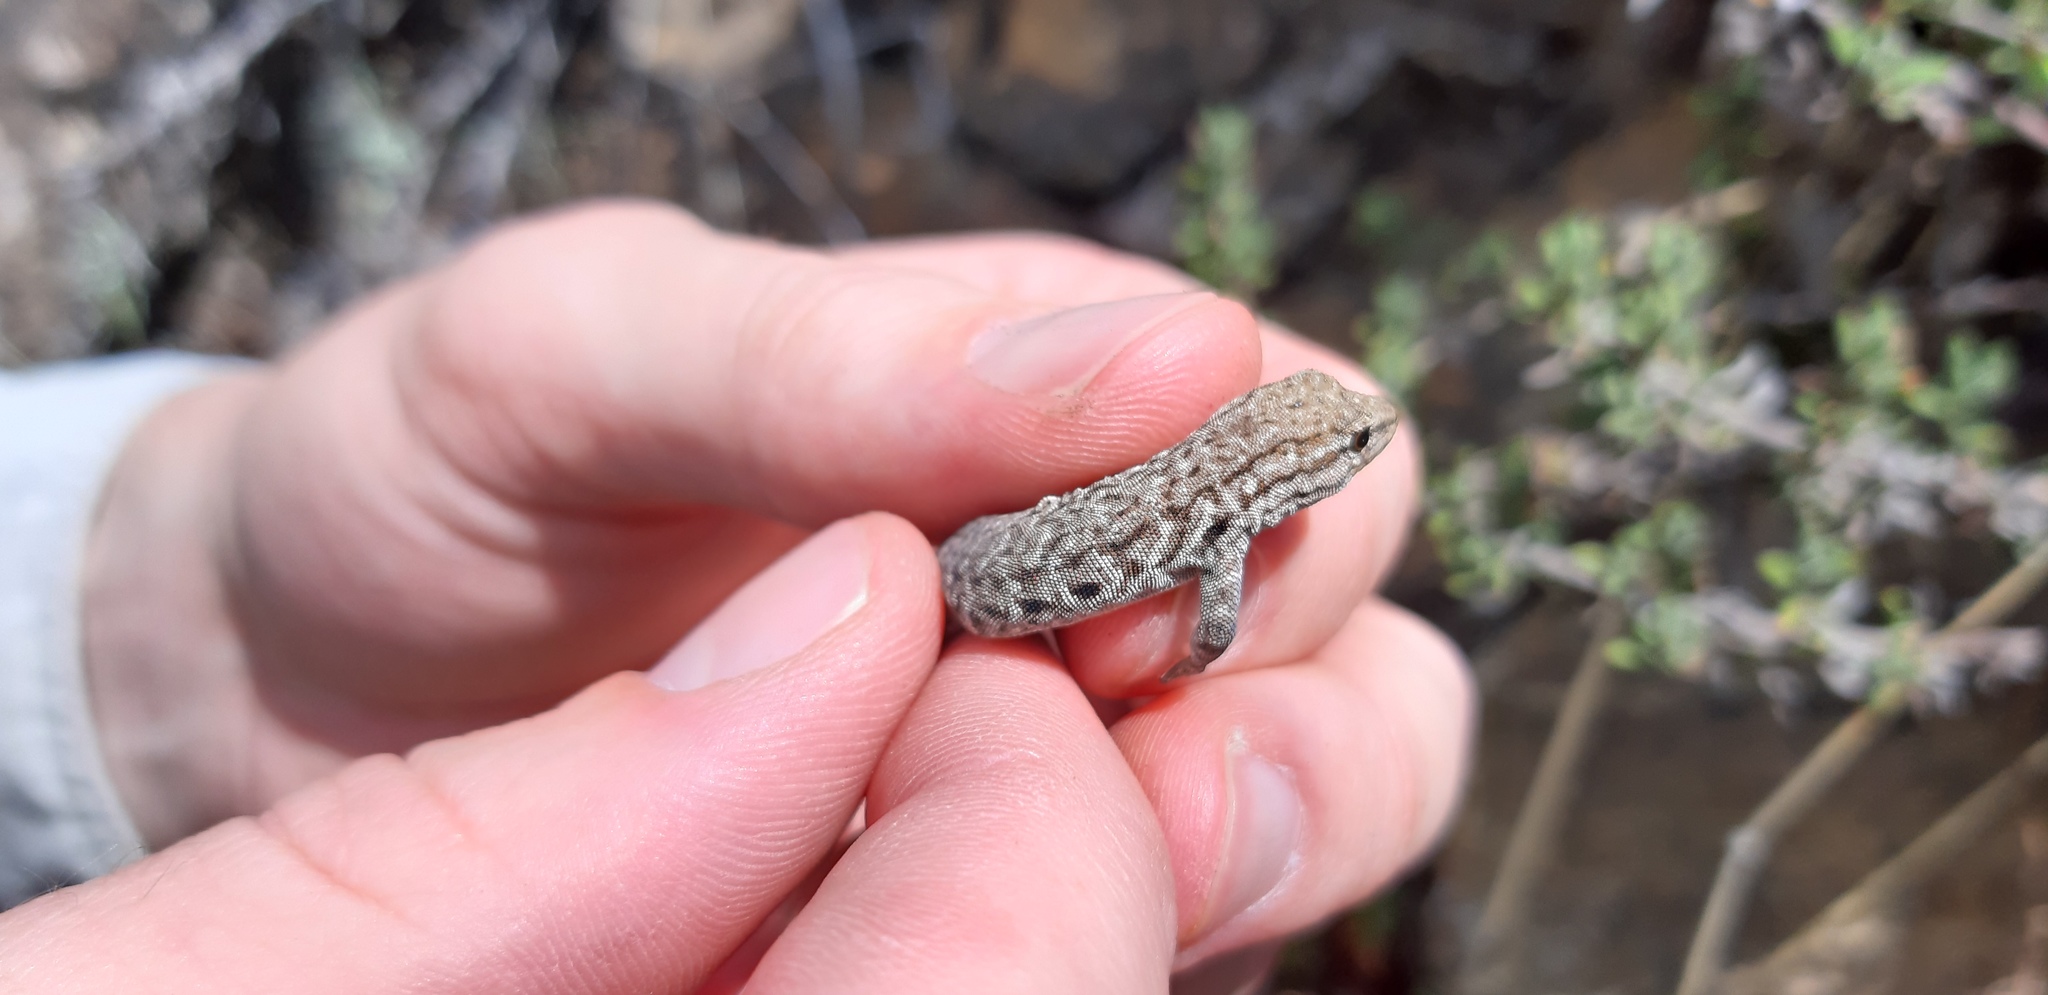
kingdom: Animalia
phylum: Chordata
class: Squamata
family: Gekkonidae
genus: Lygodactylus
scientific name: Lygodactylus methueni
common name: Methuen's dwarf gecko
